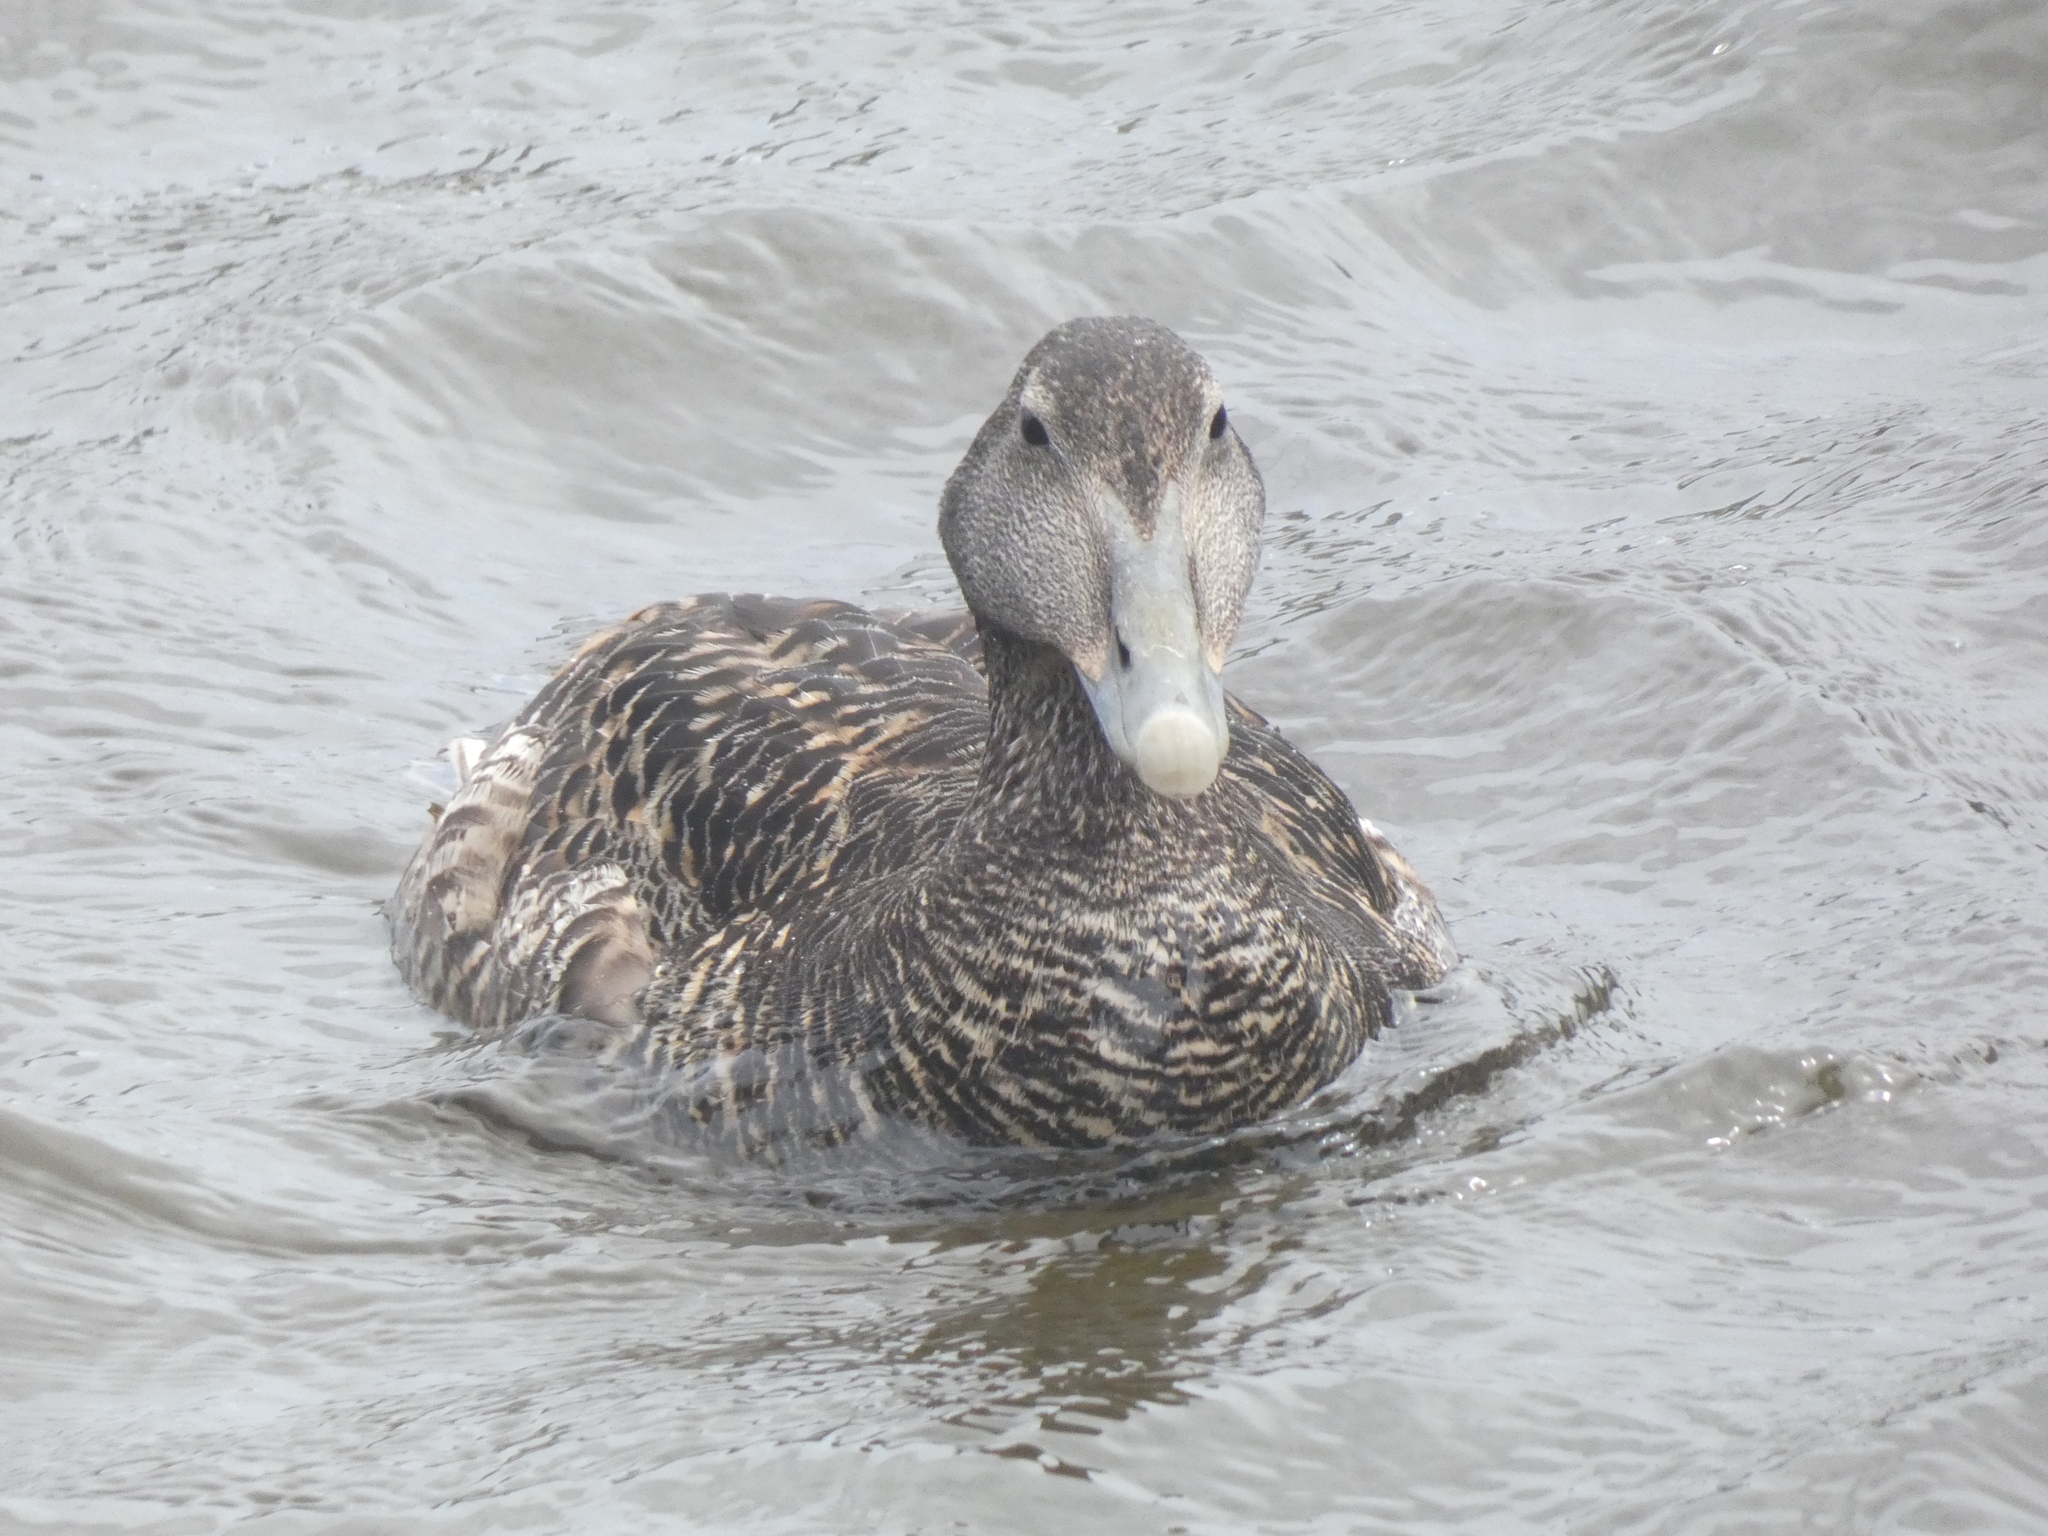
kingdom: Animalia
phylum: Chordata
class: Aves
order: Anseriformes
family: Anatidae
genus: Somateria
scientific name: Somateria mollissima
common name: Common eider
